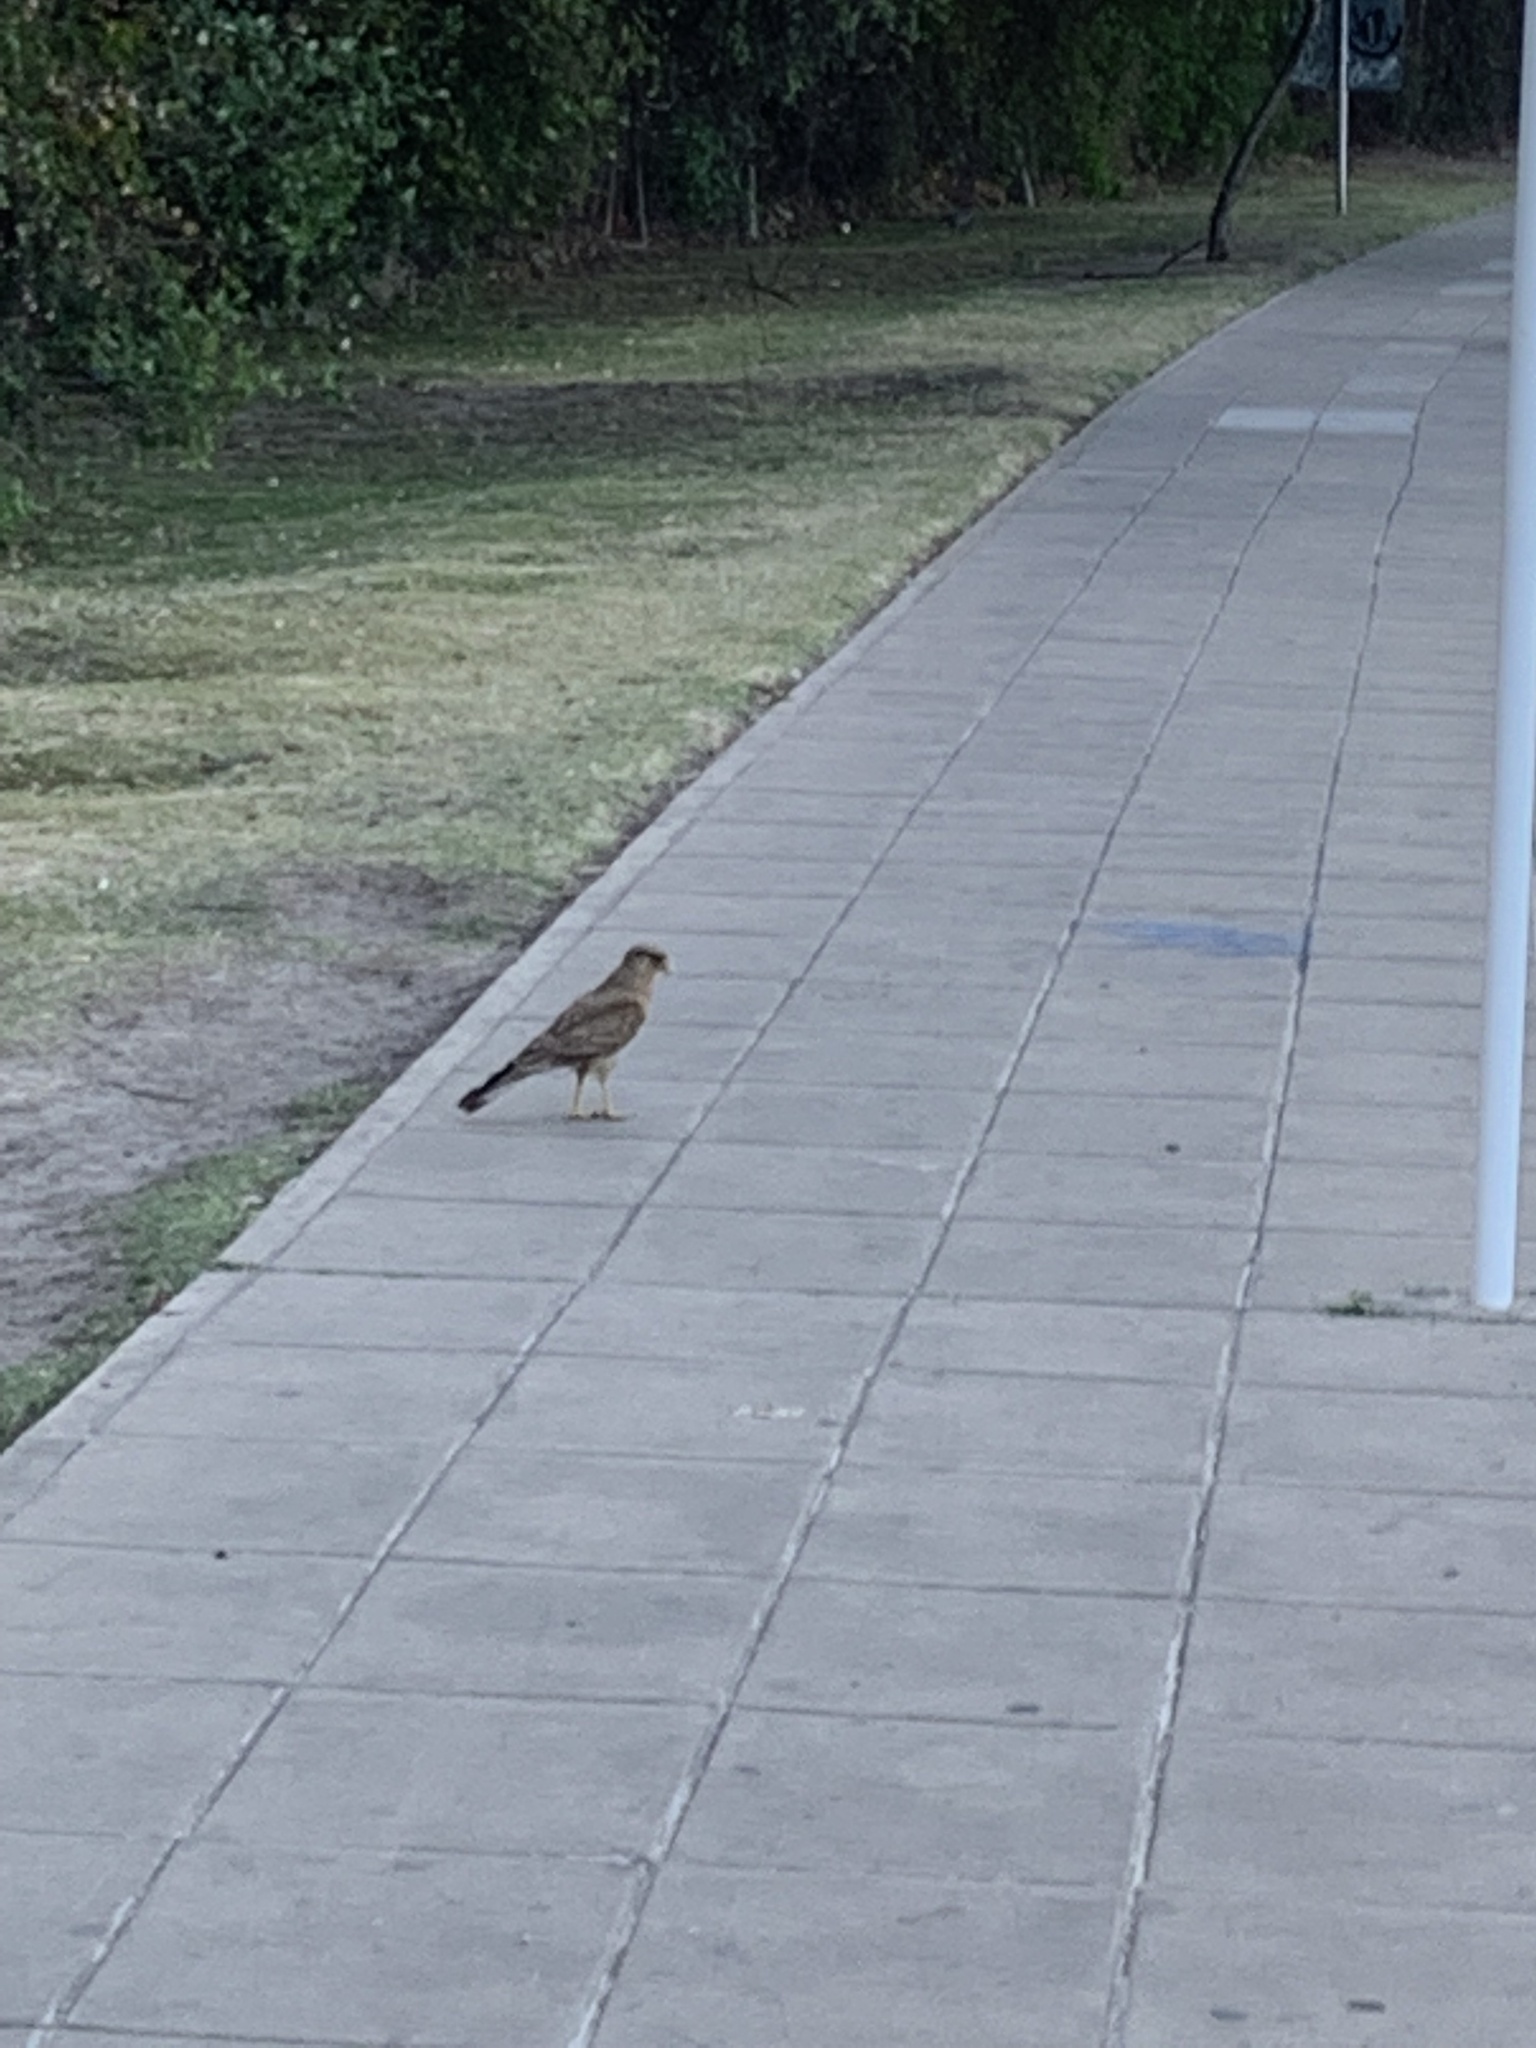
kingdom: Animalia
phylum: Chordata
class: Aves
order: Falconiformes
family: Falconidae
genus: Daptrius
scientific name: Daptrius
